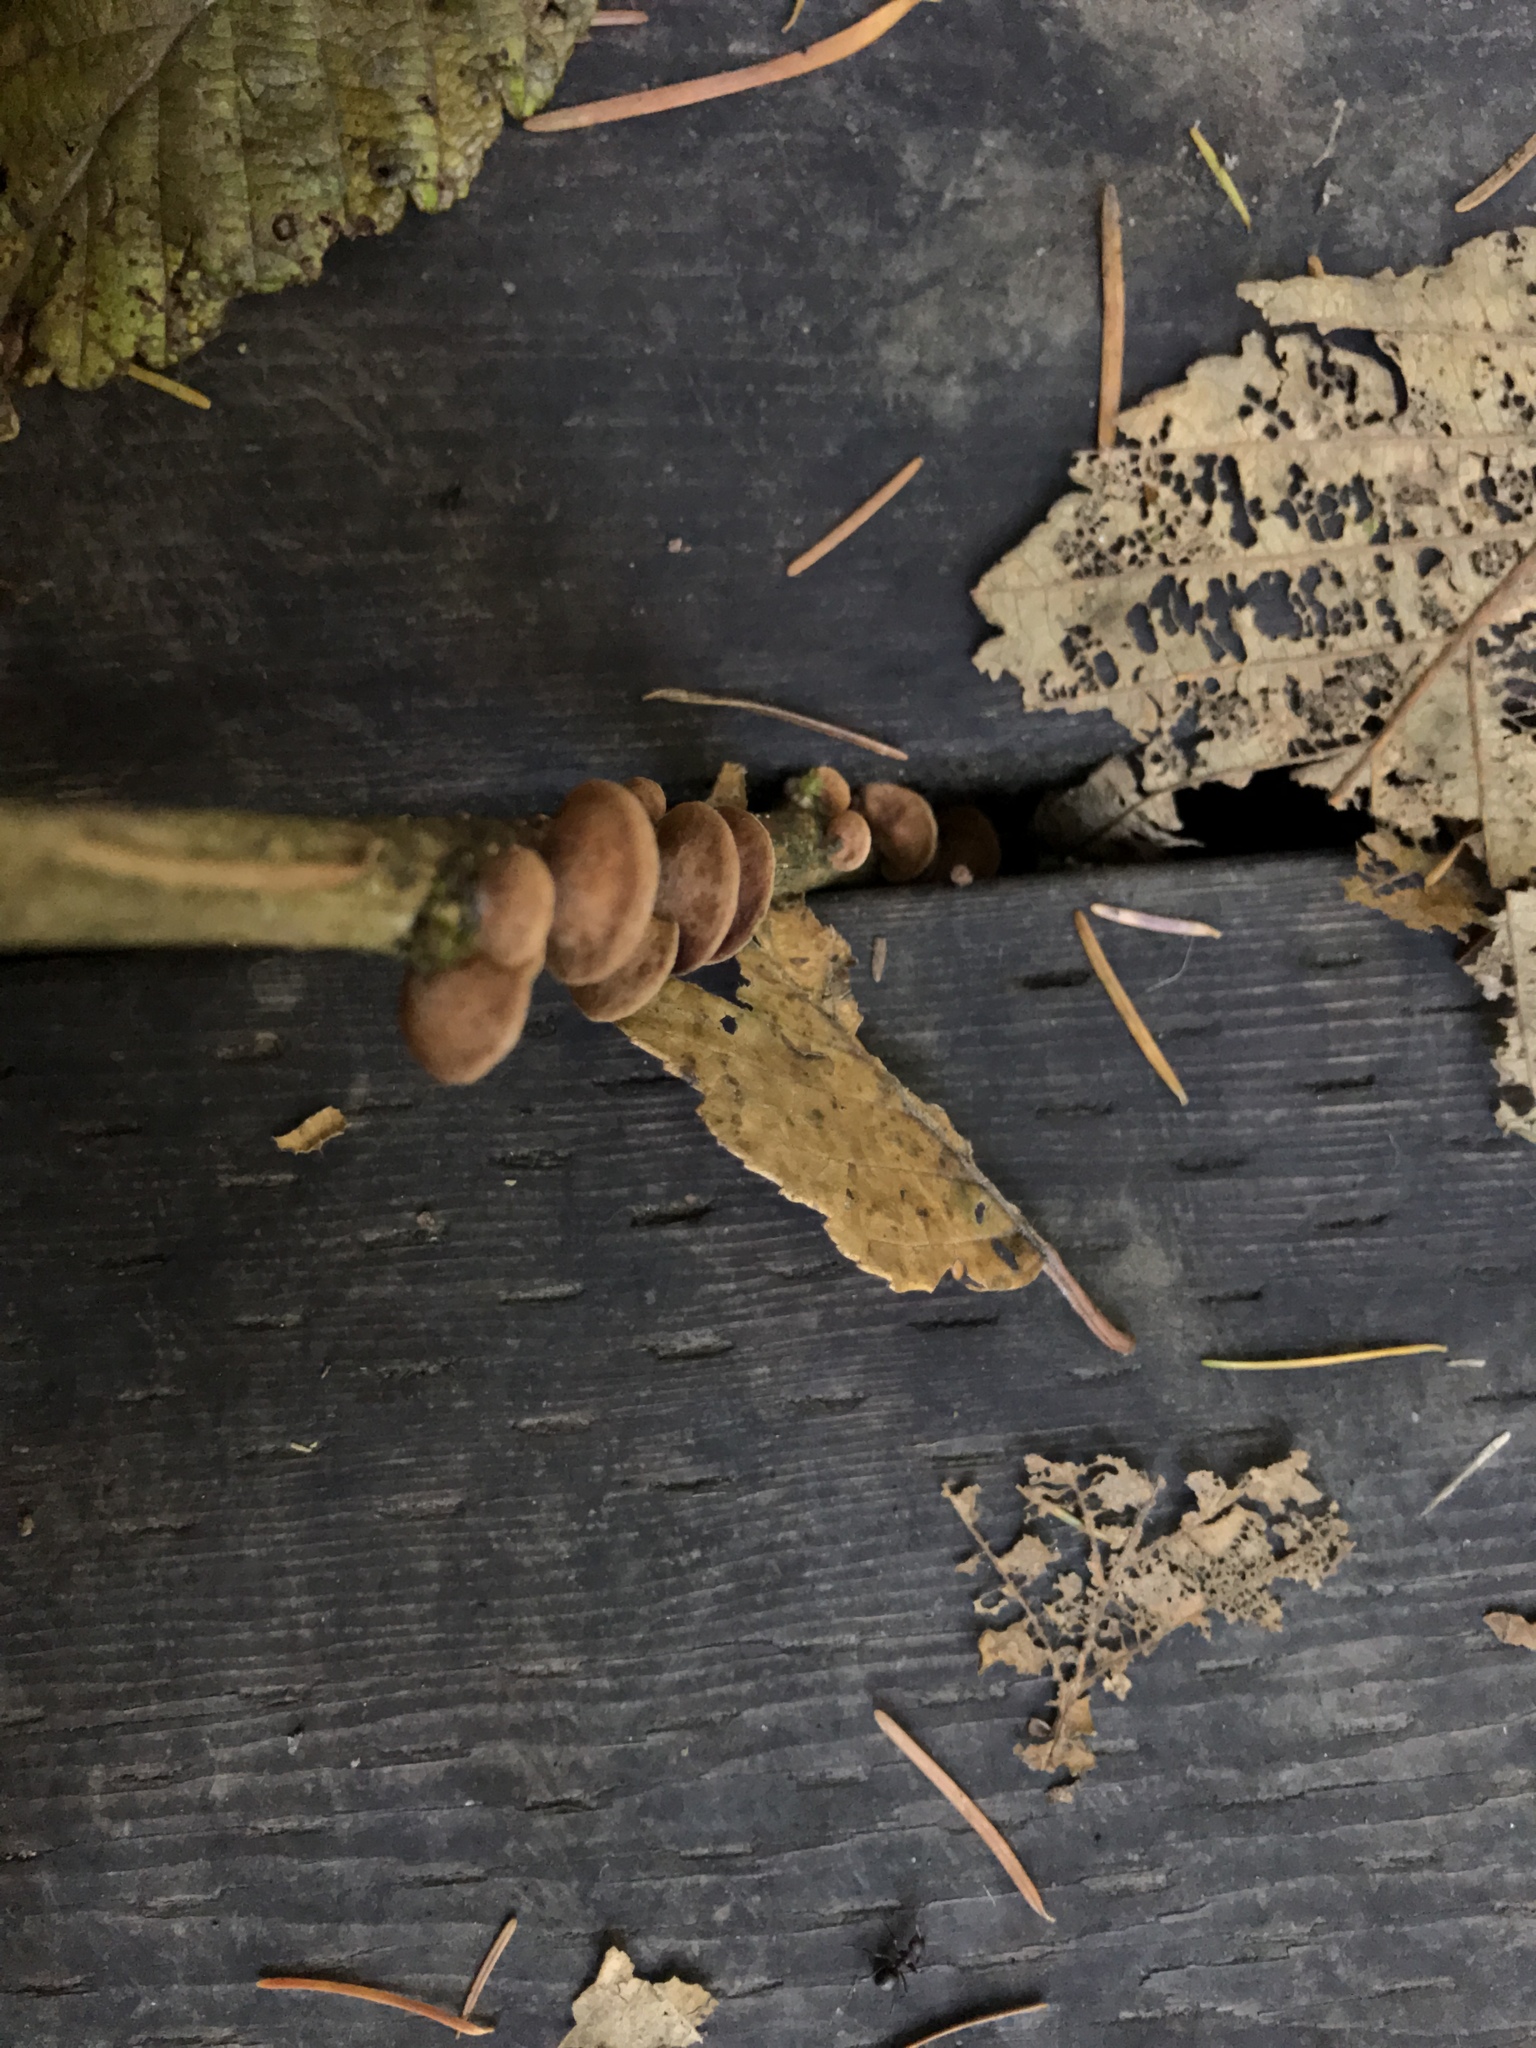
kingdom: Fungi
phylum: Basidiomycota
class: Agaricomycetes
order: Agaricales
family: Strophariaceae
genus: Deconica
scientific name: Deconica horizontalis
